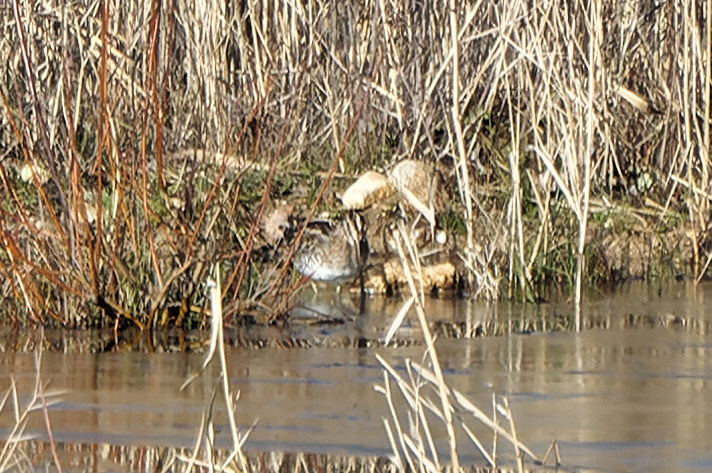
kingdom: Animalia
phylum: Chordata
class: Aves
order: Charadriiformes
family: Scolopacidae
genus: Gallinago
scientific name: Gallinago gallinago
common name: Common snipe
